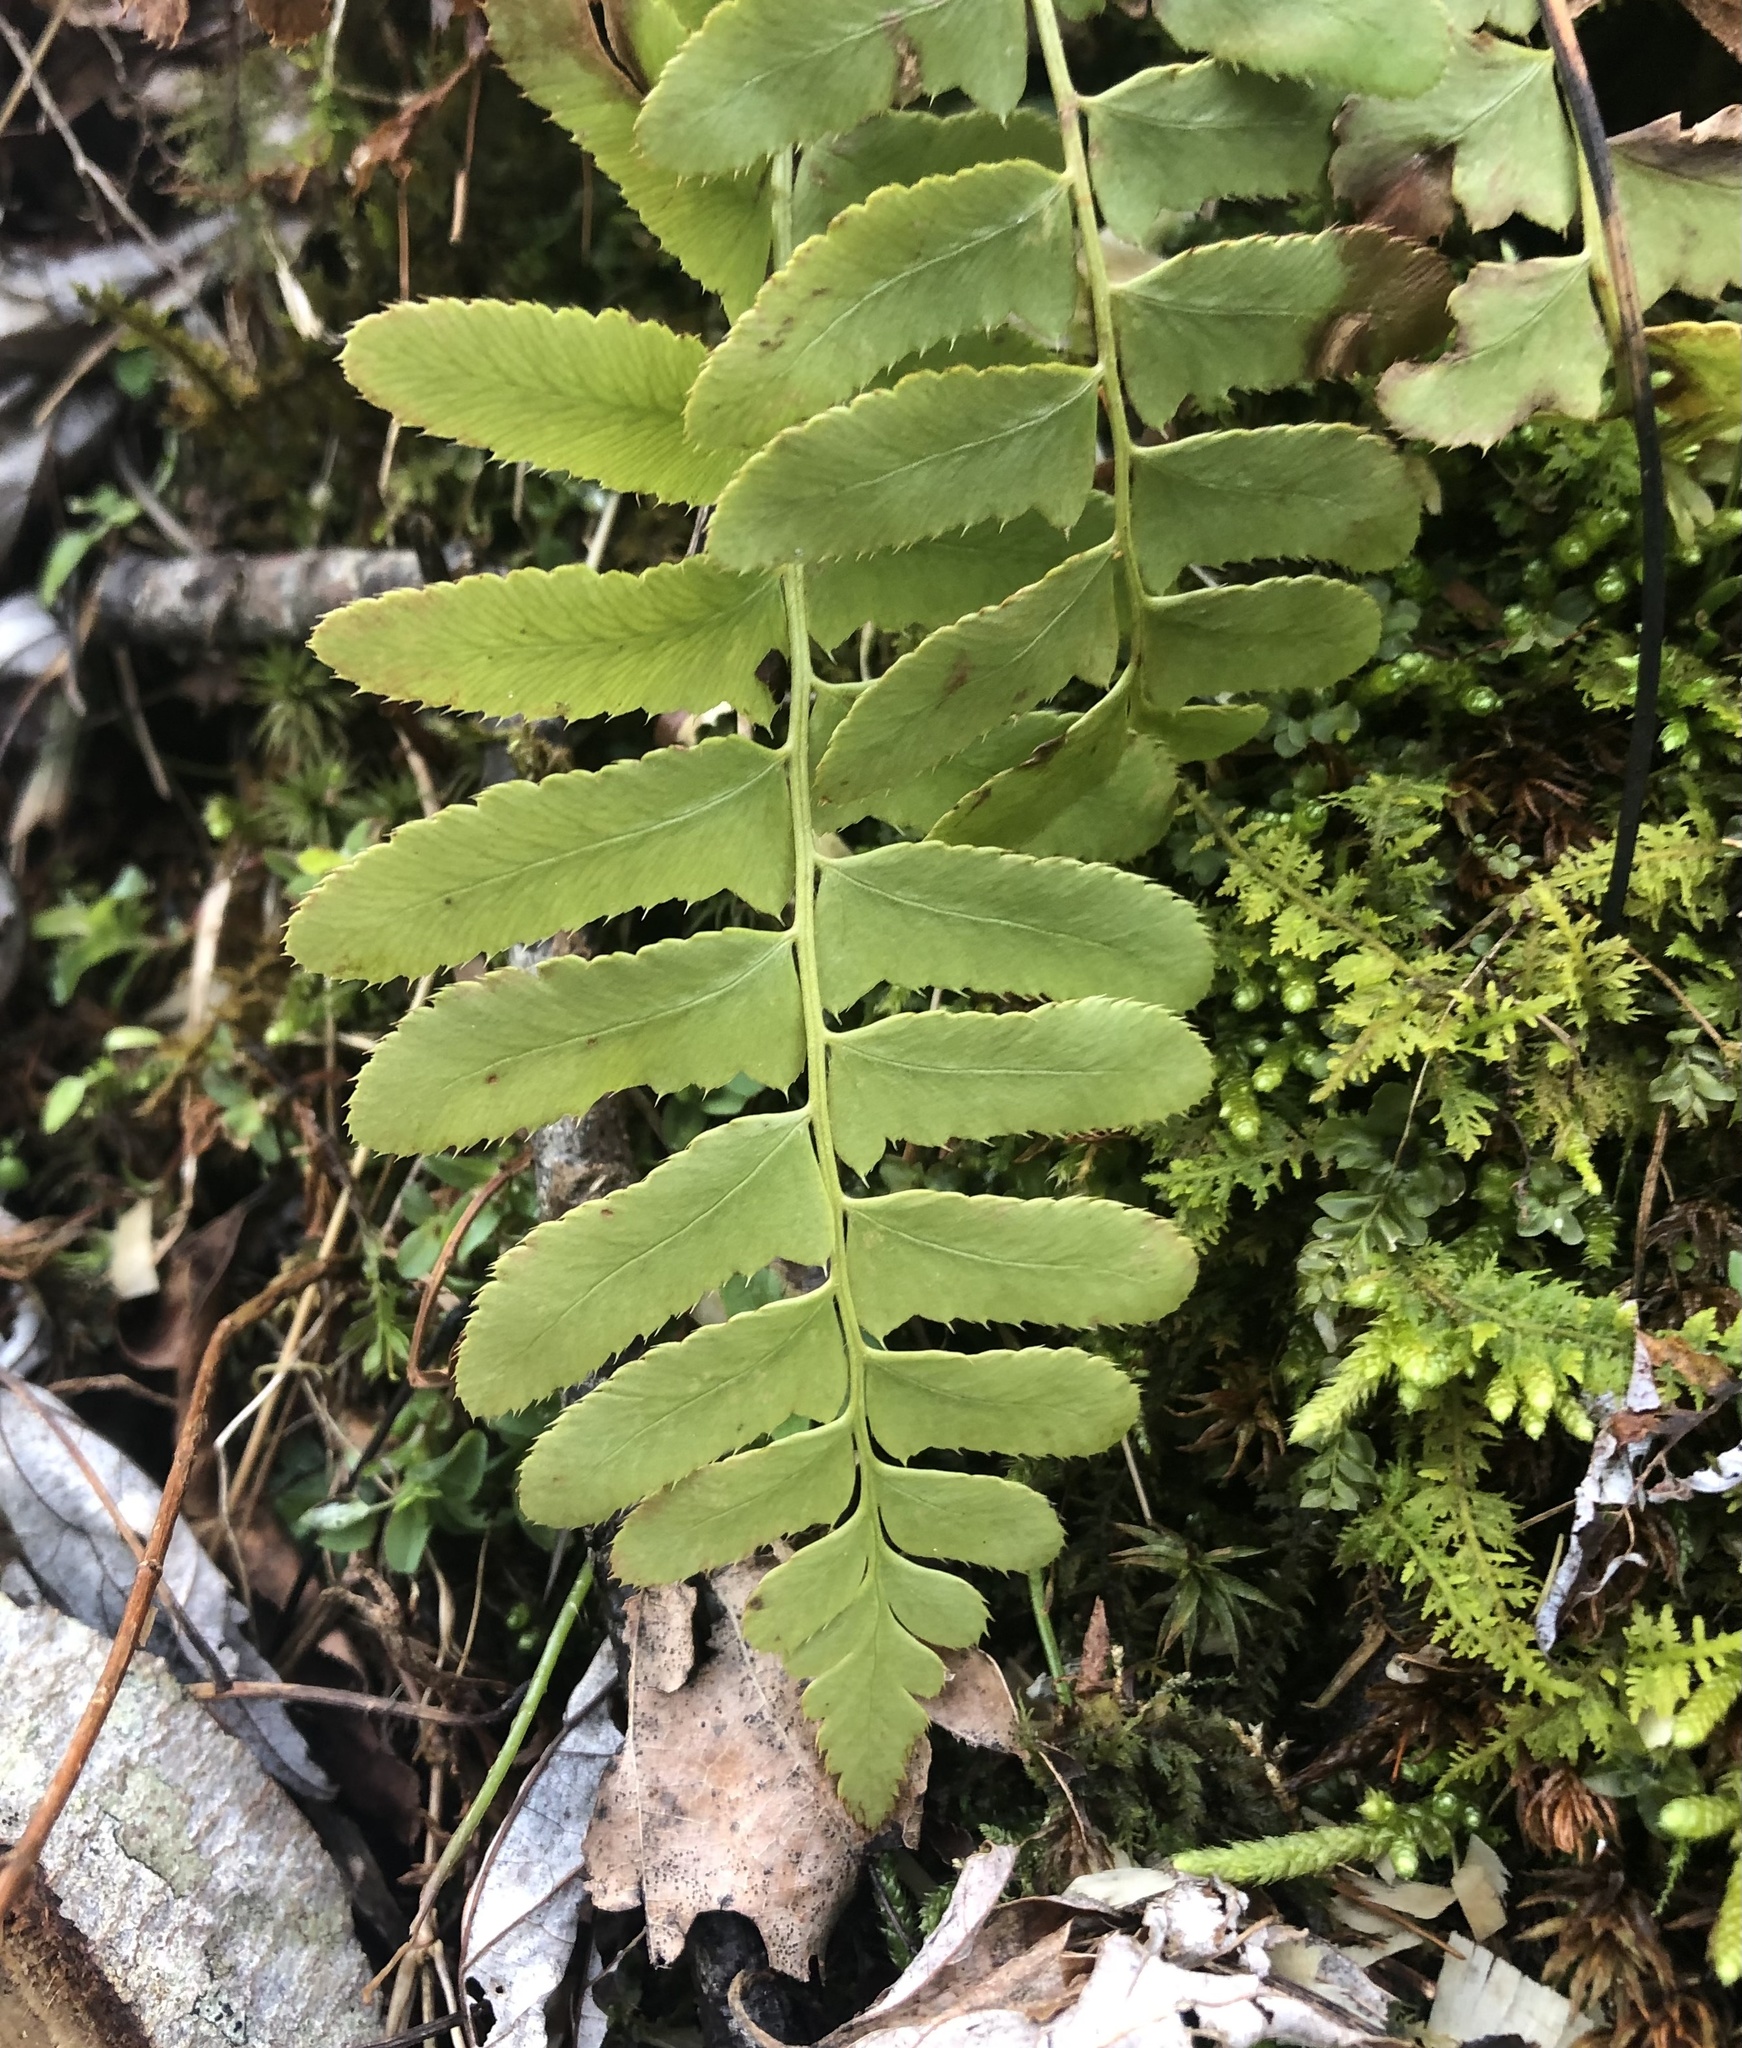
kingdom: Plantae
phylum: Tracheophyta
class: Polypodiopsida
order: Polypodiales
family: Dryopteridaceae
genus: Polystichum
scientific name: Polystichum acrostichoides
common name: Christmas fern
